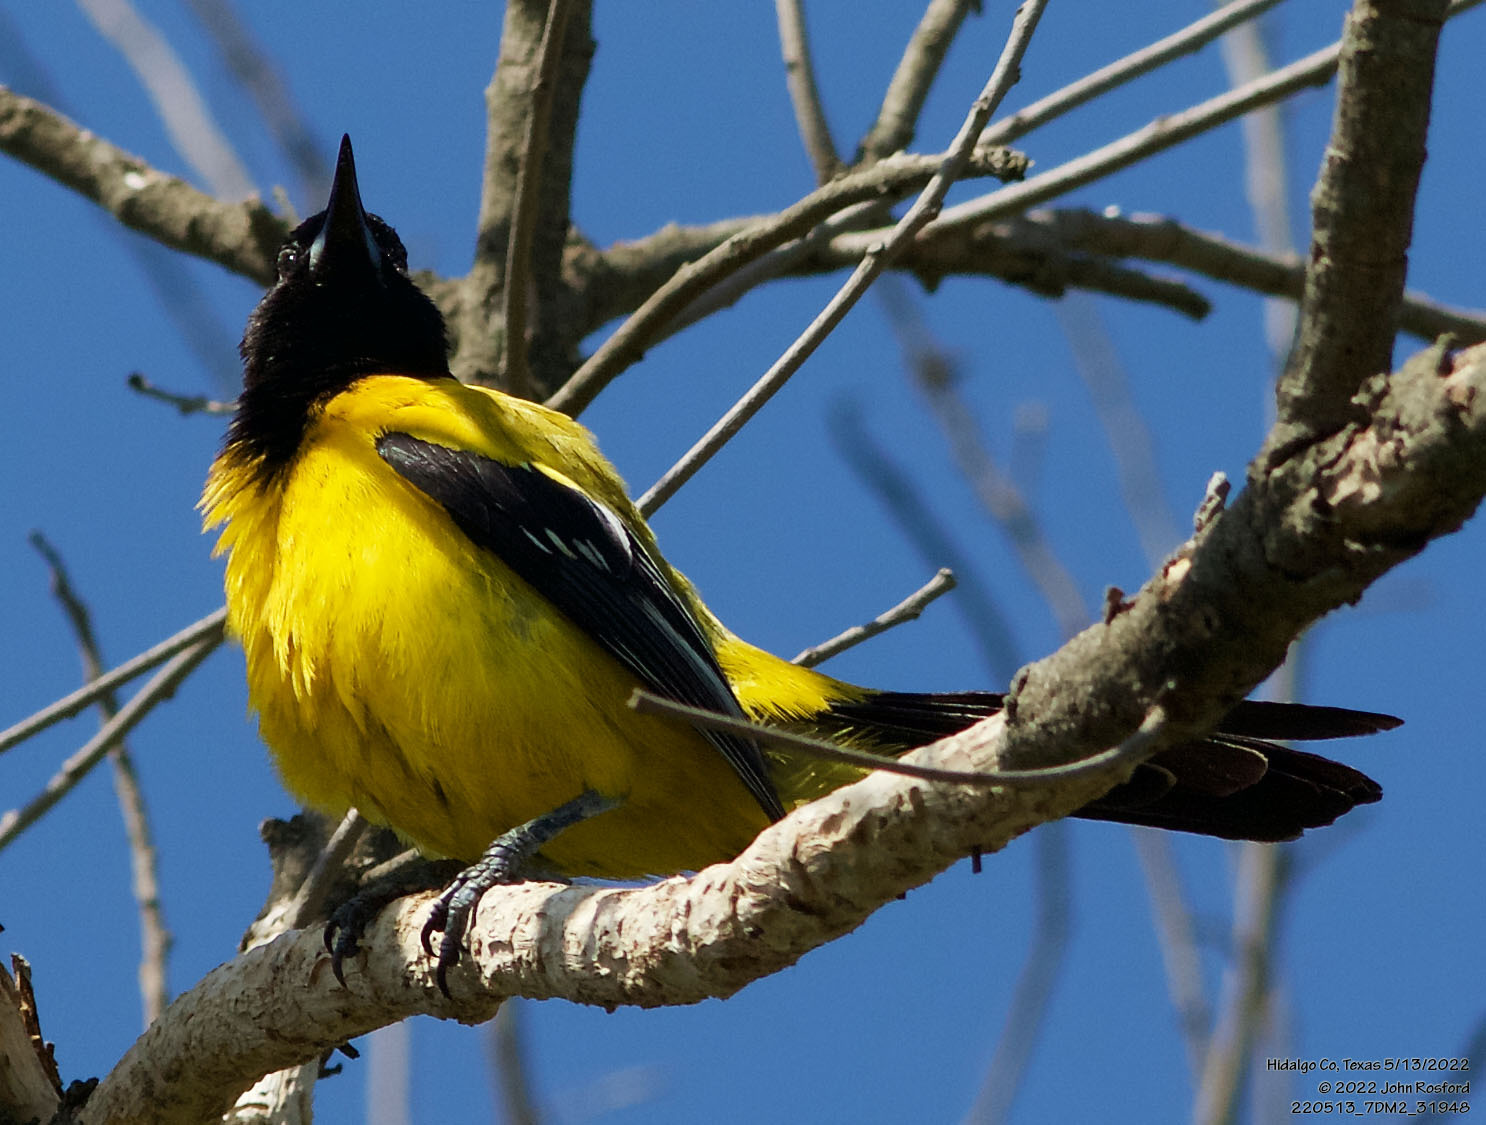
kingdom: Animalia
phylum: Chordata
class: Aves
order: Passeriformes
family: Icteridae
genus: Icterus
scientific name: Icterus graduacauda
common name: Audubon's oriole
